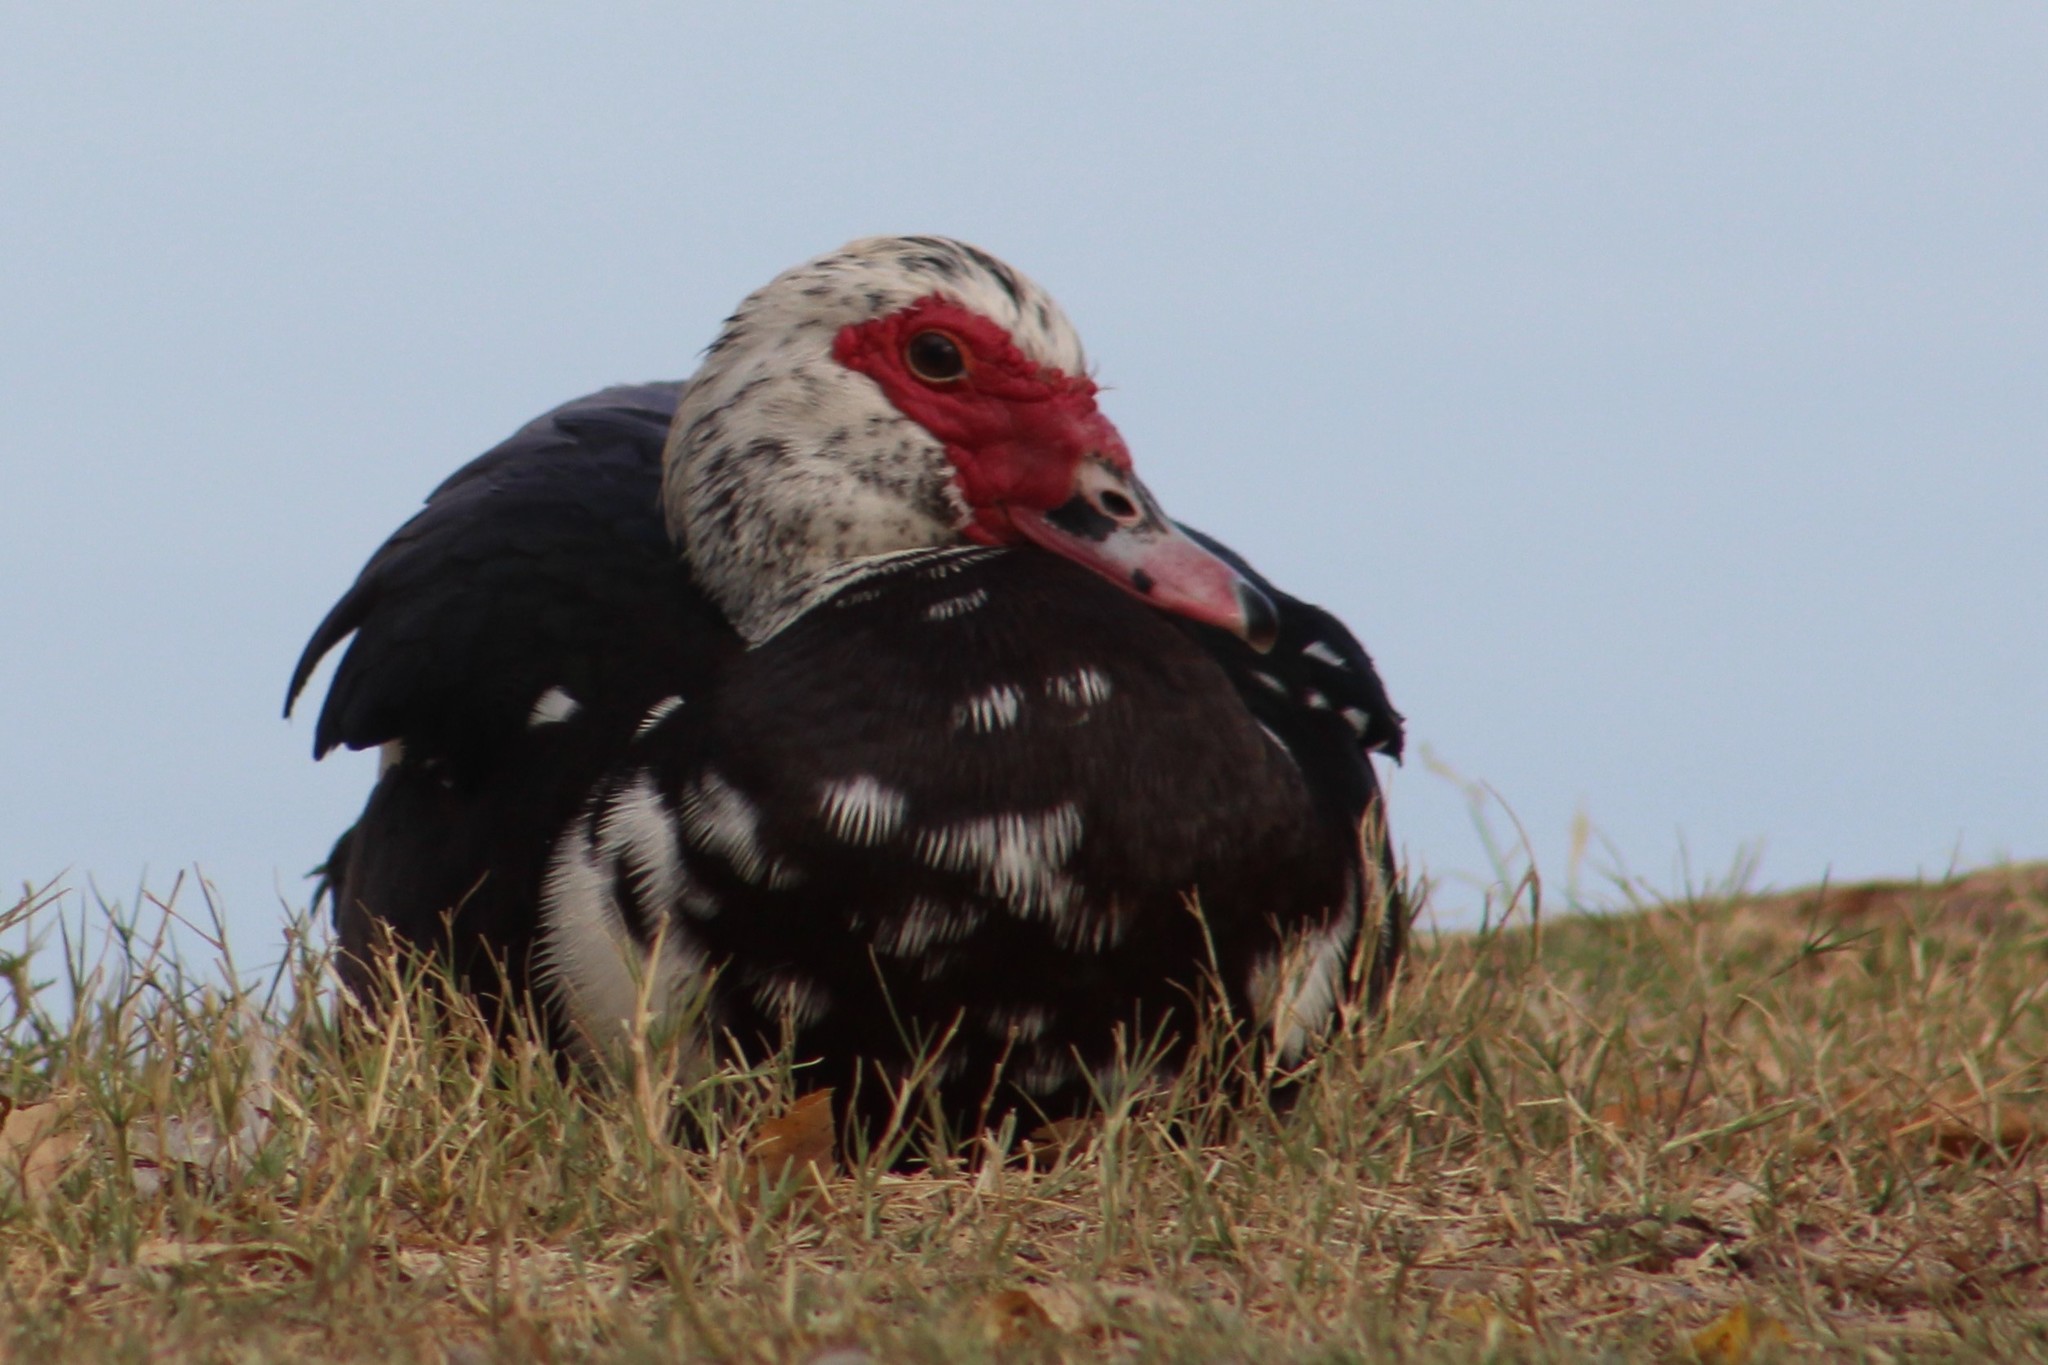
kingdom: Animalia
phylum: Chordata
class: Aves
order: Anseriformes
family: Anatidae
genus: Cairina
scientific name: Cairina moschata
